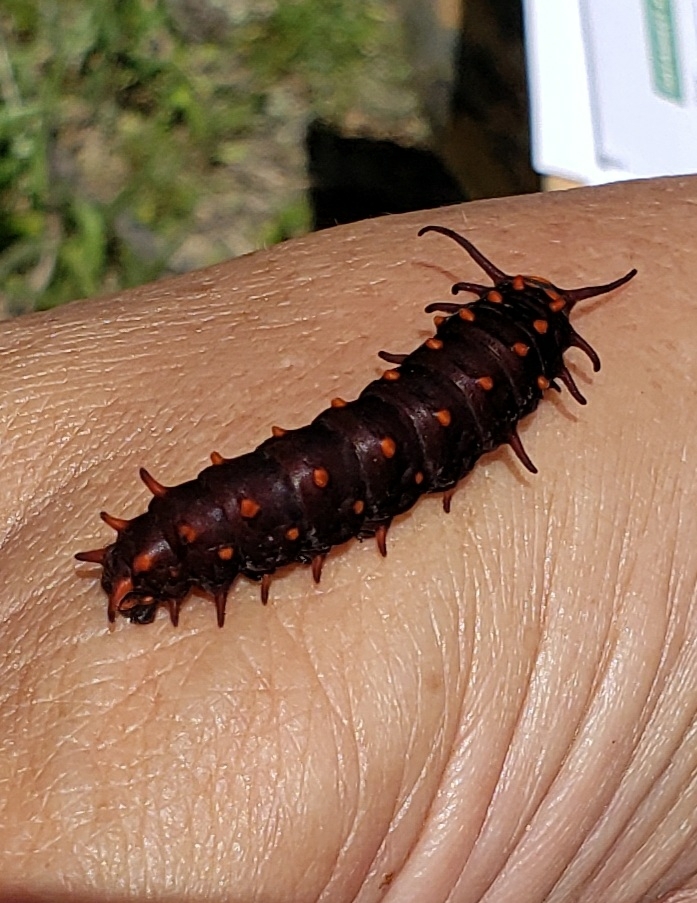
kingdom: Animalia
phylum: Arthropoda
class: Insecta
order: Lepidoptera
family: Papilionidae
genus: Battus
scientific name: Battus philenor
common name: Pipevine swallowtail
